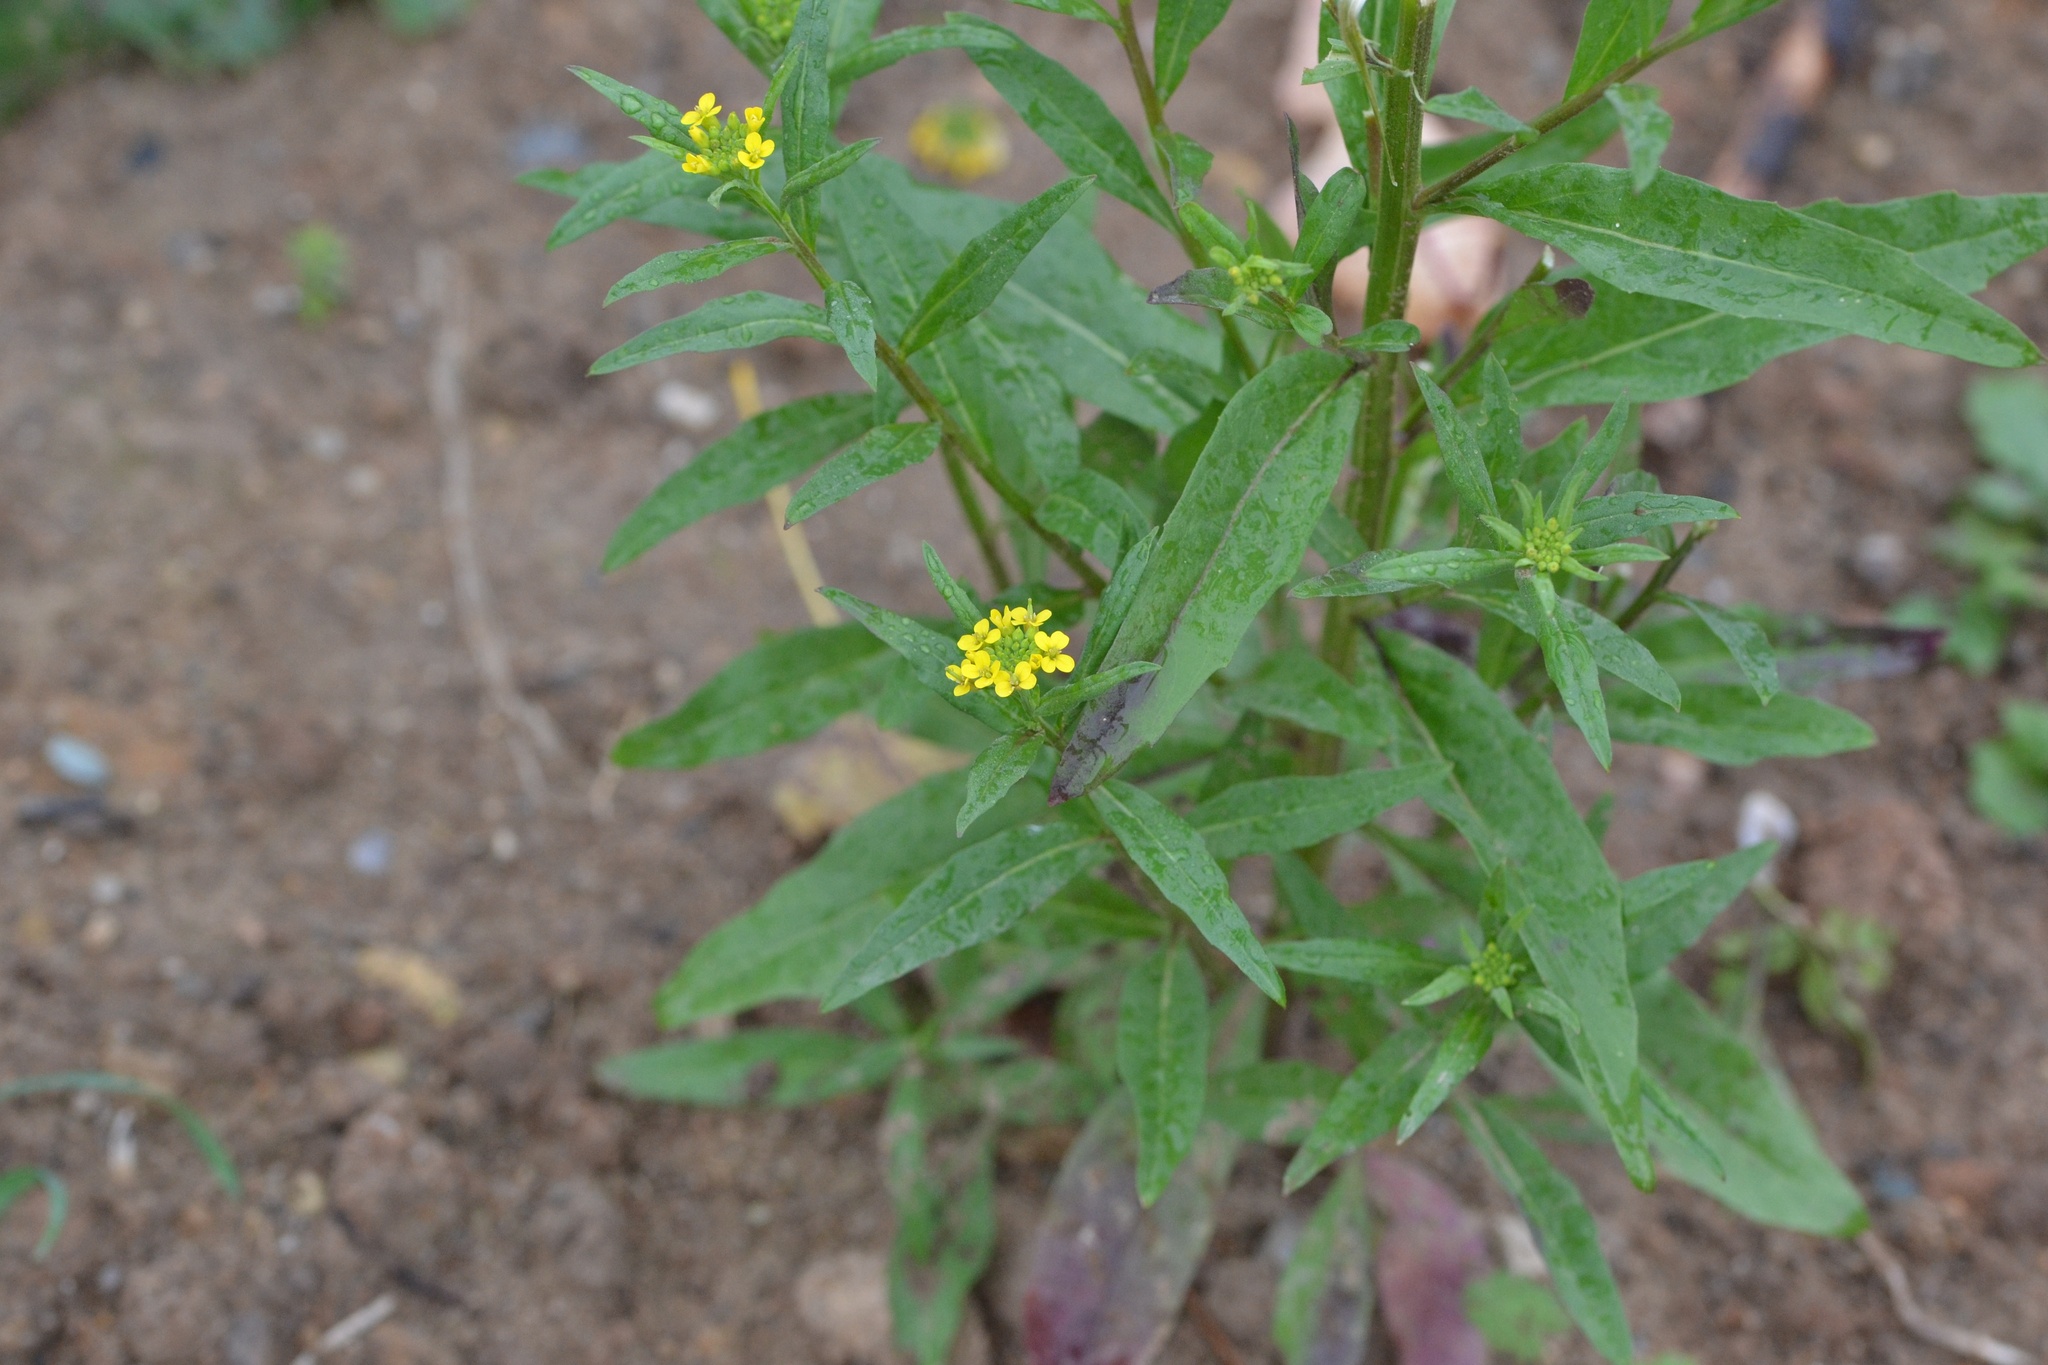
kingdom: Plantae
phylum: Tracheophyta
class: Magnoliopsida
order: Brassicales
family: Brassicaceae
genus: Erysimum
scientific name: Erysimum cheiranthoides
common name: Treacle mustard
